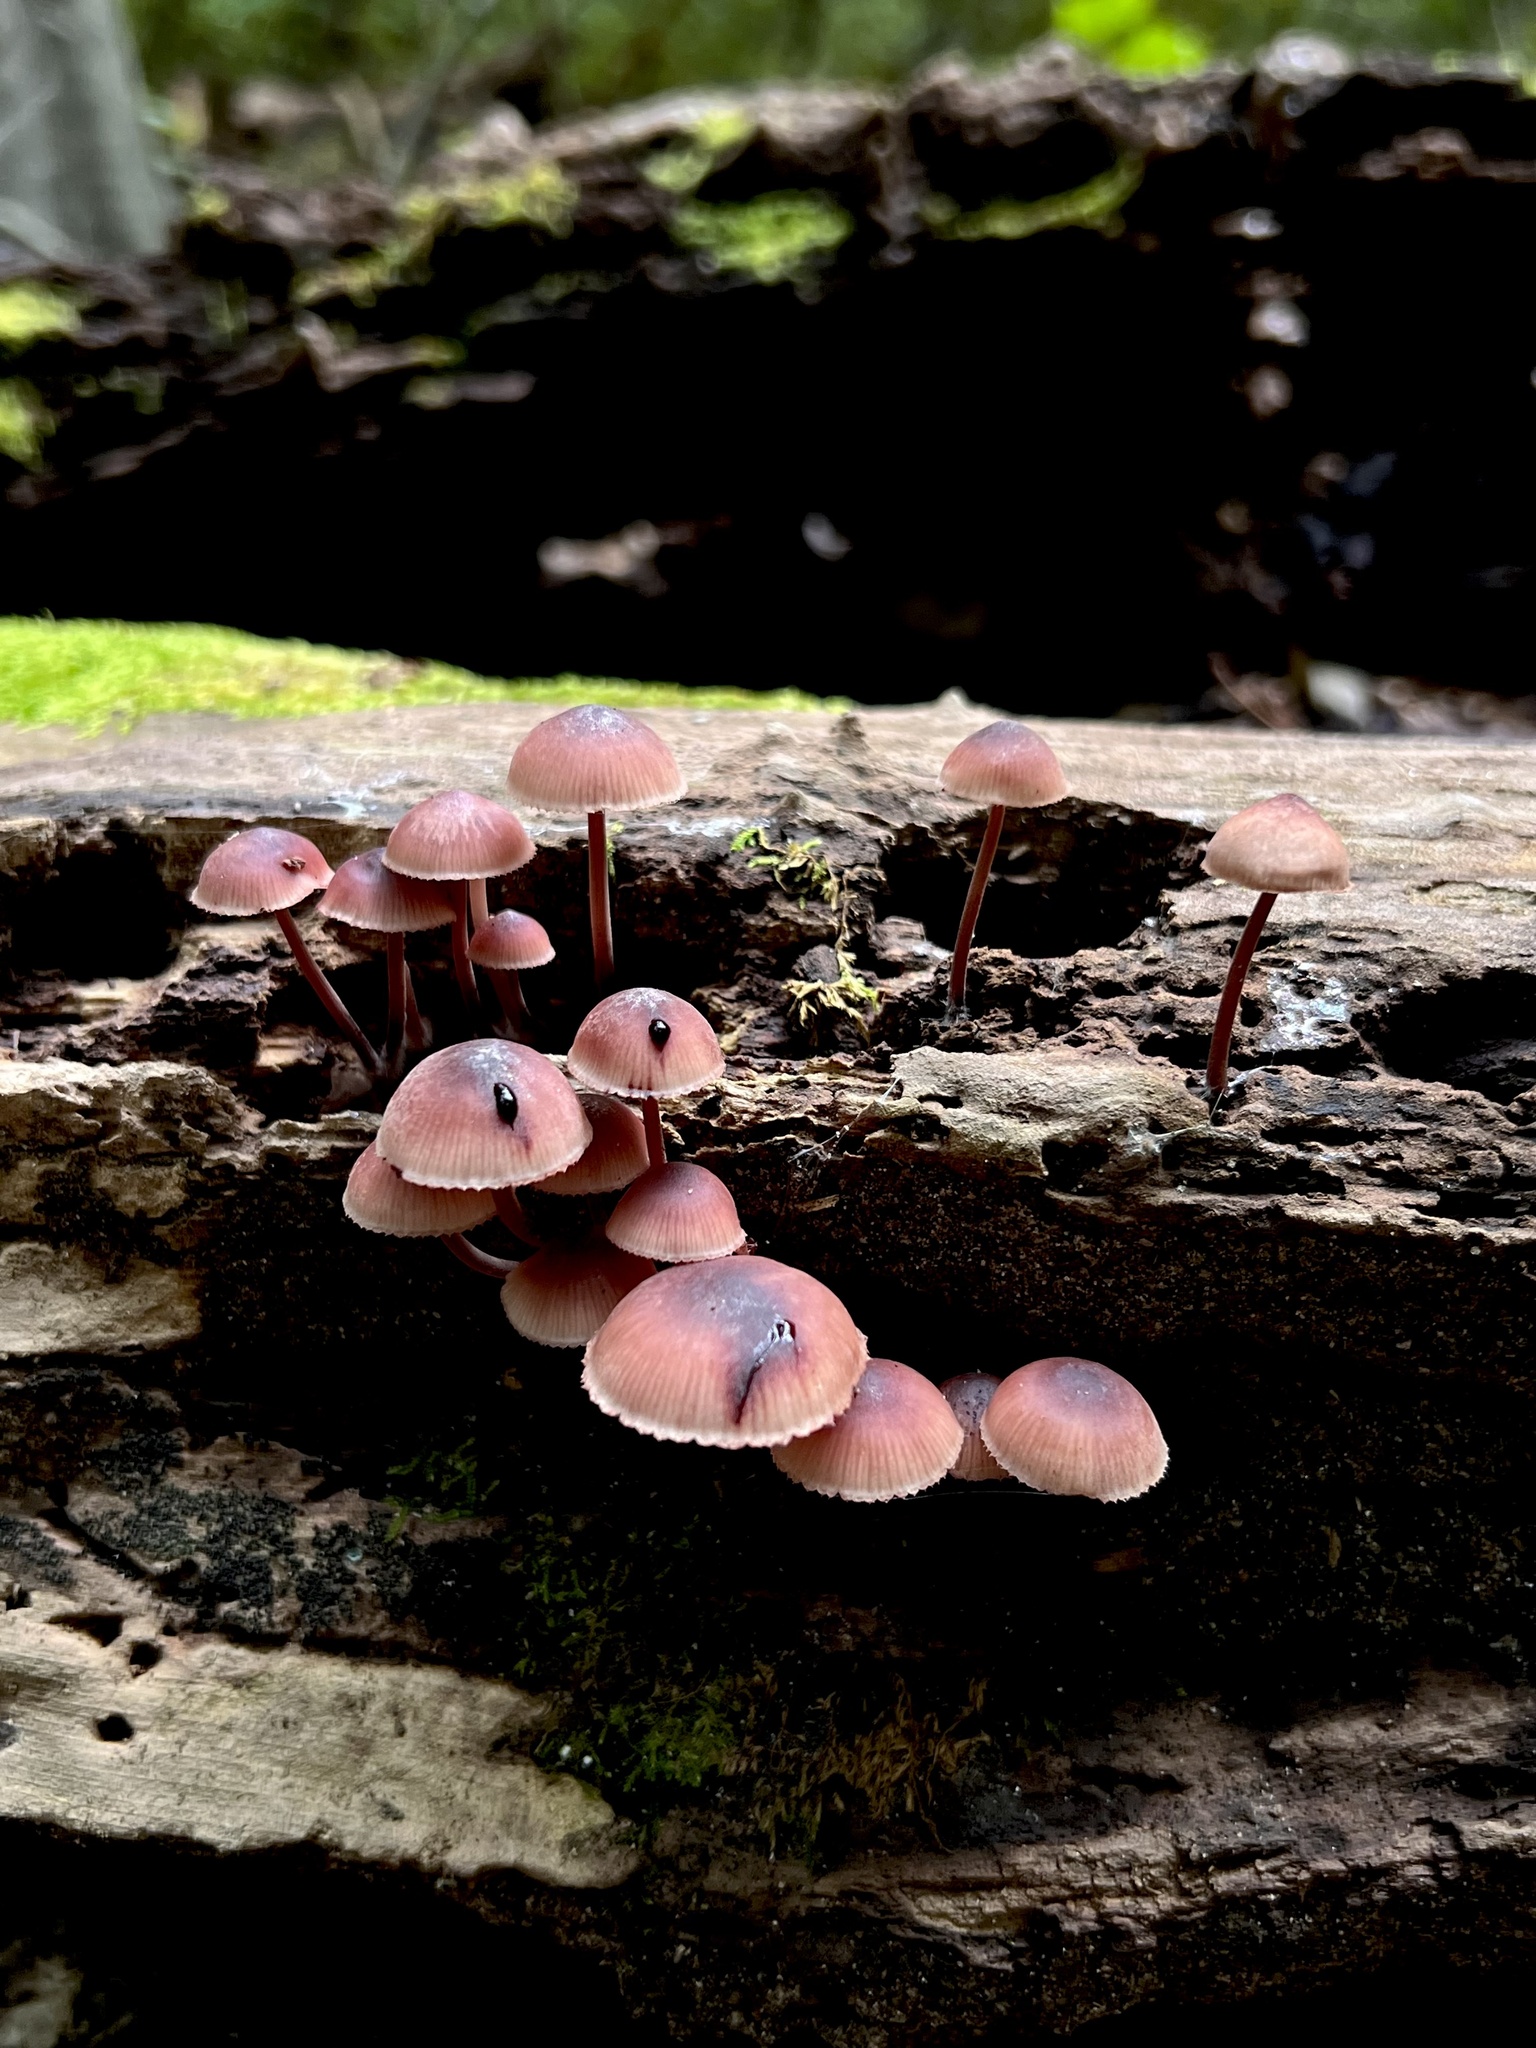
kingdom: Fungi
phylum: Basidiomycota
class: Agaricomycetes
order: Agaricales
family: Mycenaceae
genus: Mycena
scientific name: Mycena haematopus
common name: Burgundydrop bonnet
